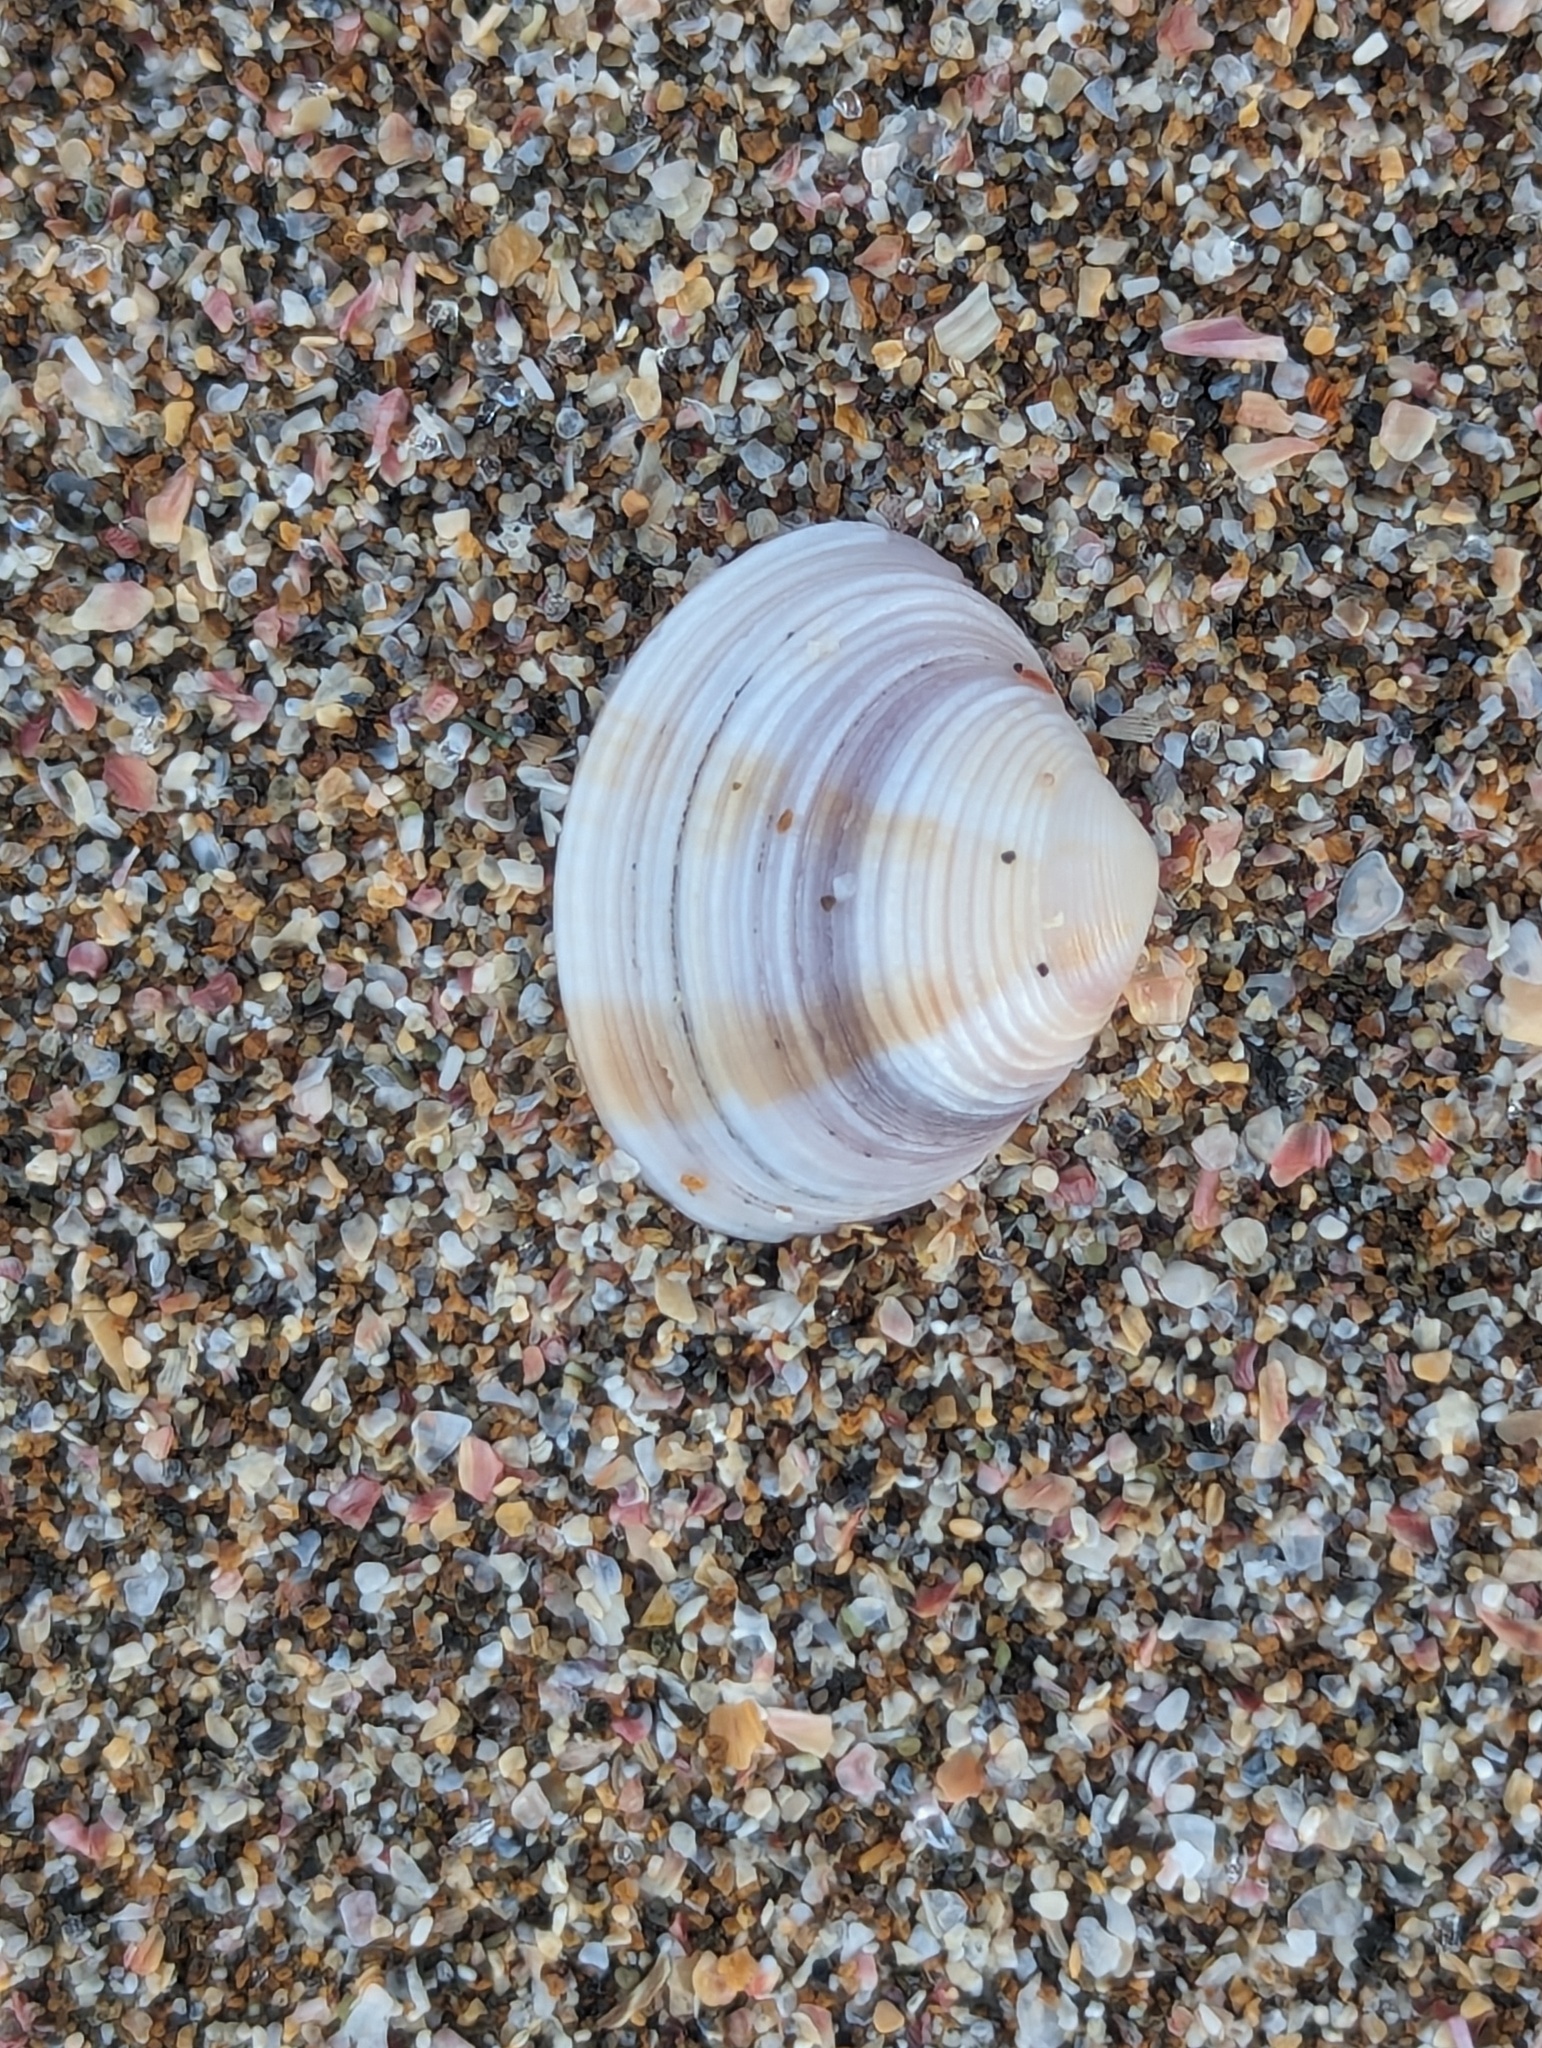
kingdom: Animalia
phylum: Mollusca
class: Bivalvia
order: Venerida
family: Veneridae
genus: Tawera
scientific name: Tawera spissa
